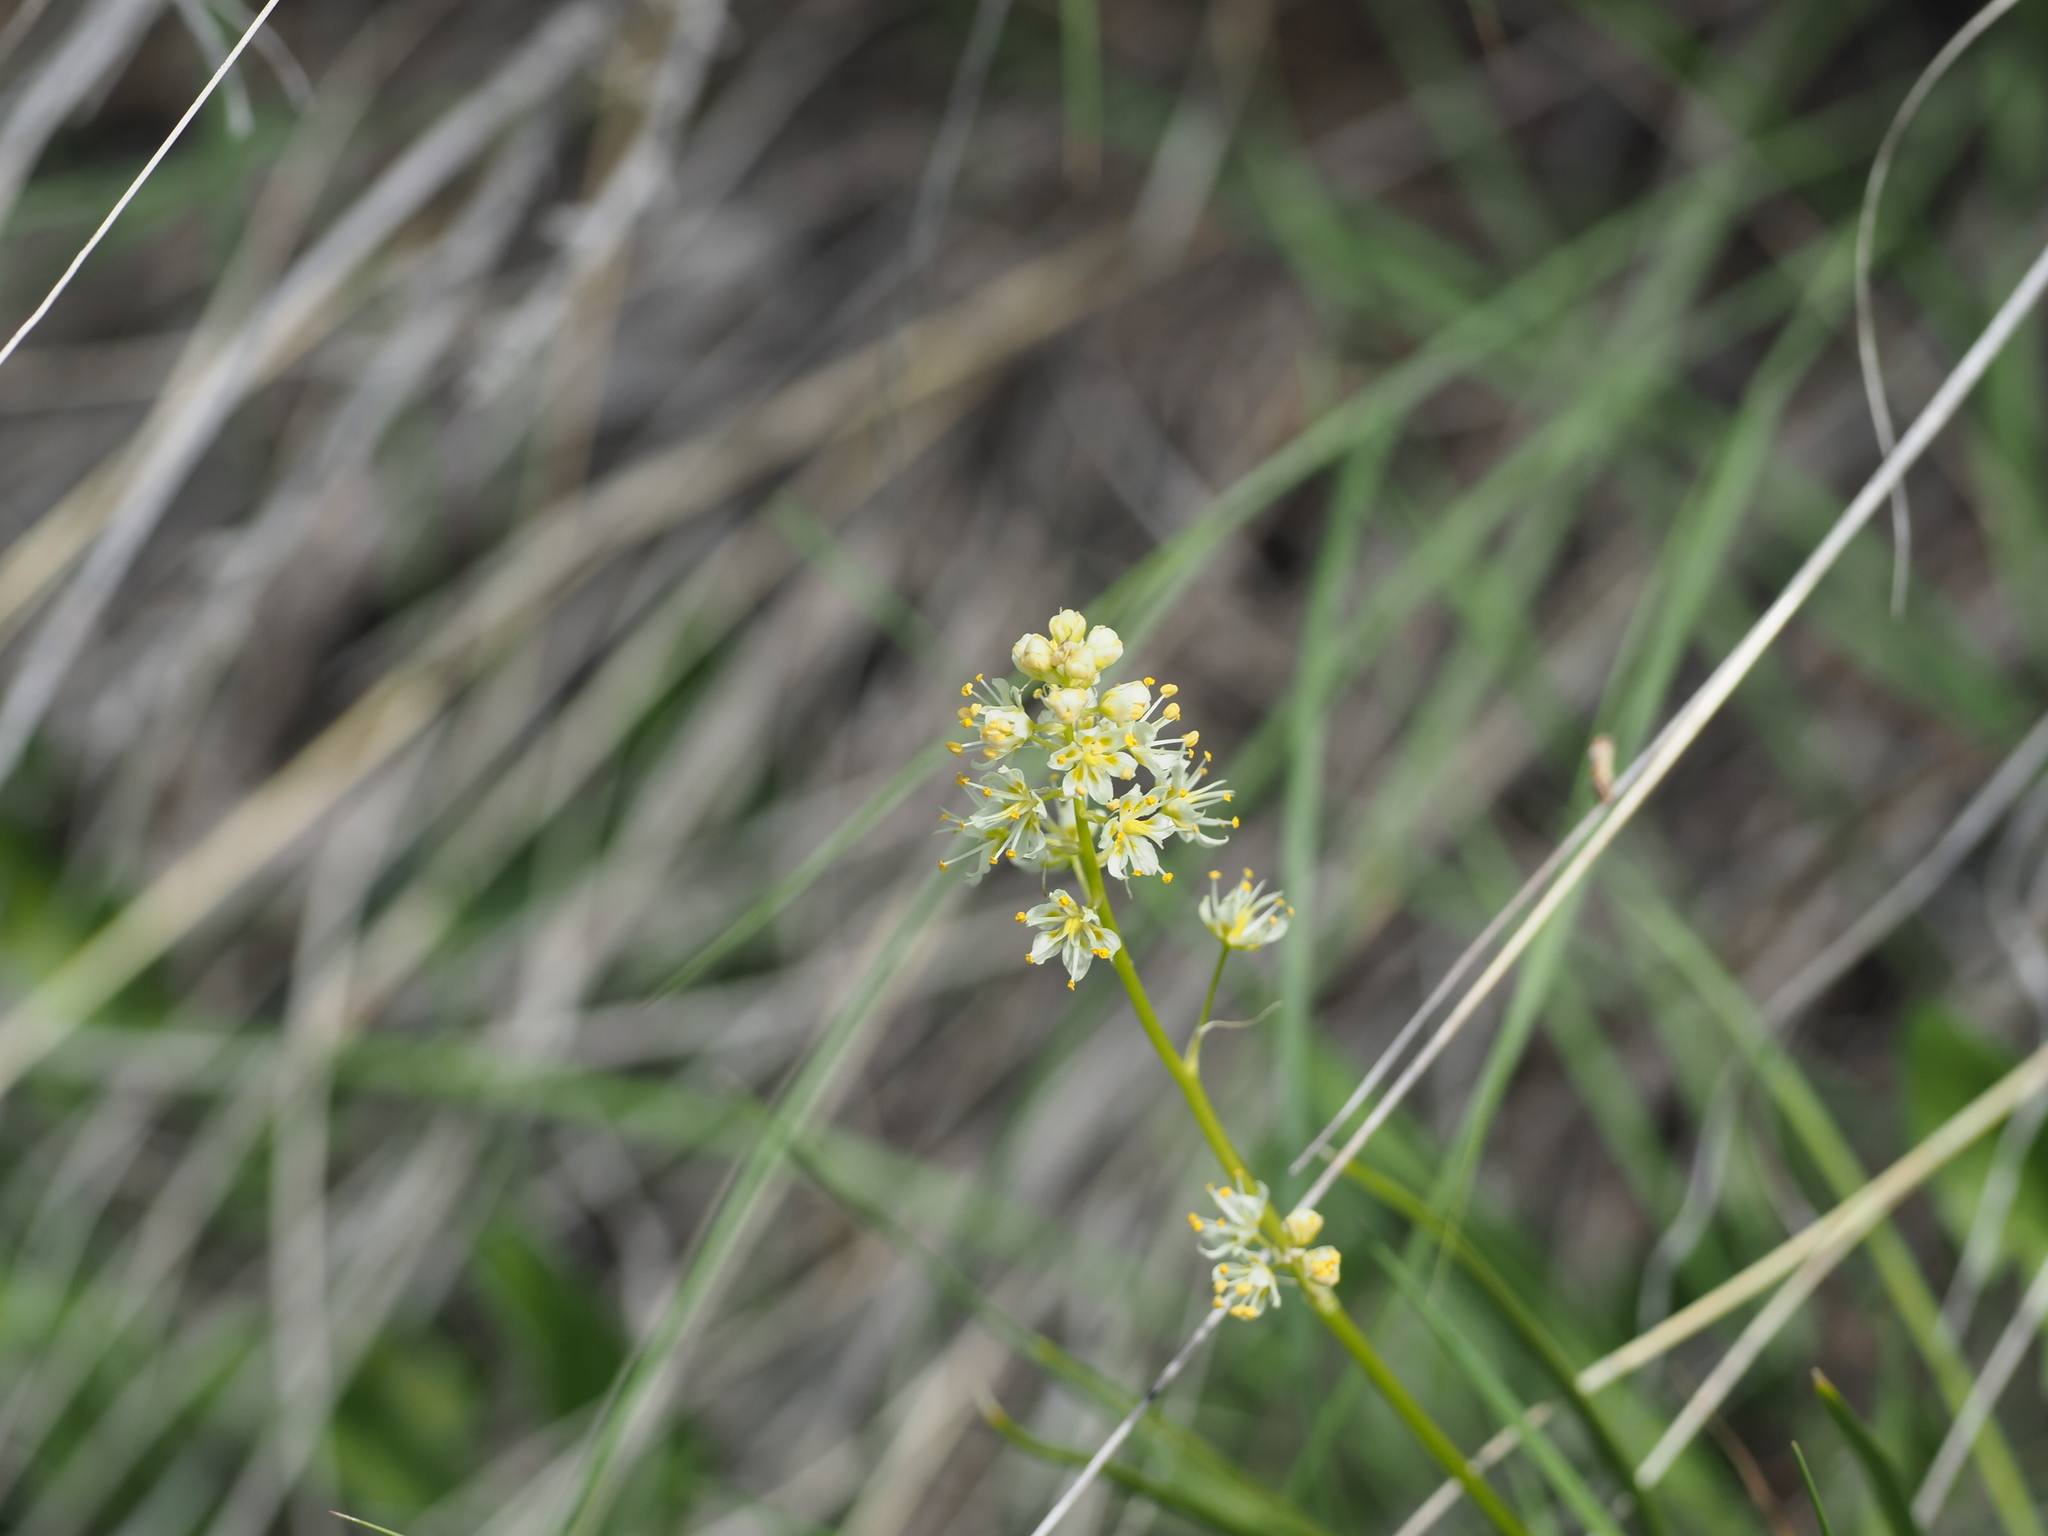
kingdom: Plantae
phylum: Tracheophyta
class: Liliopsida
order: Liliales
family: Melanthiaceae
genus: Toxicoscordion
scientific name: Toxicoscordion venenosum
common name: Meadow death camas
